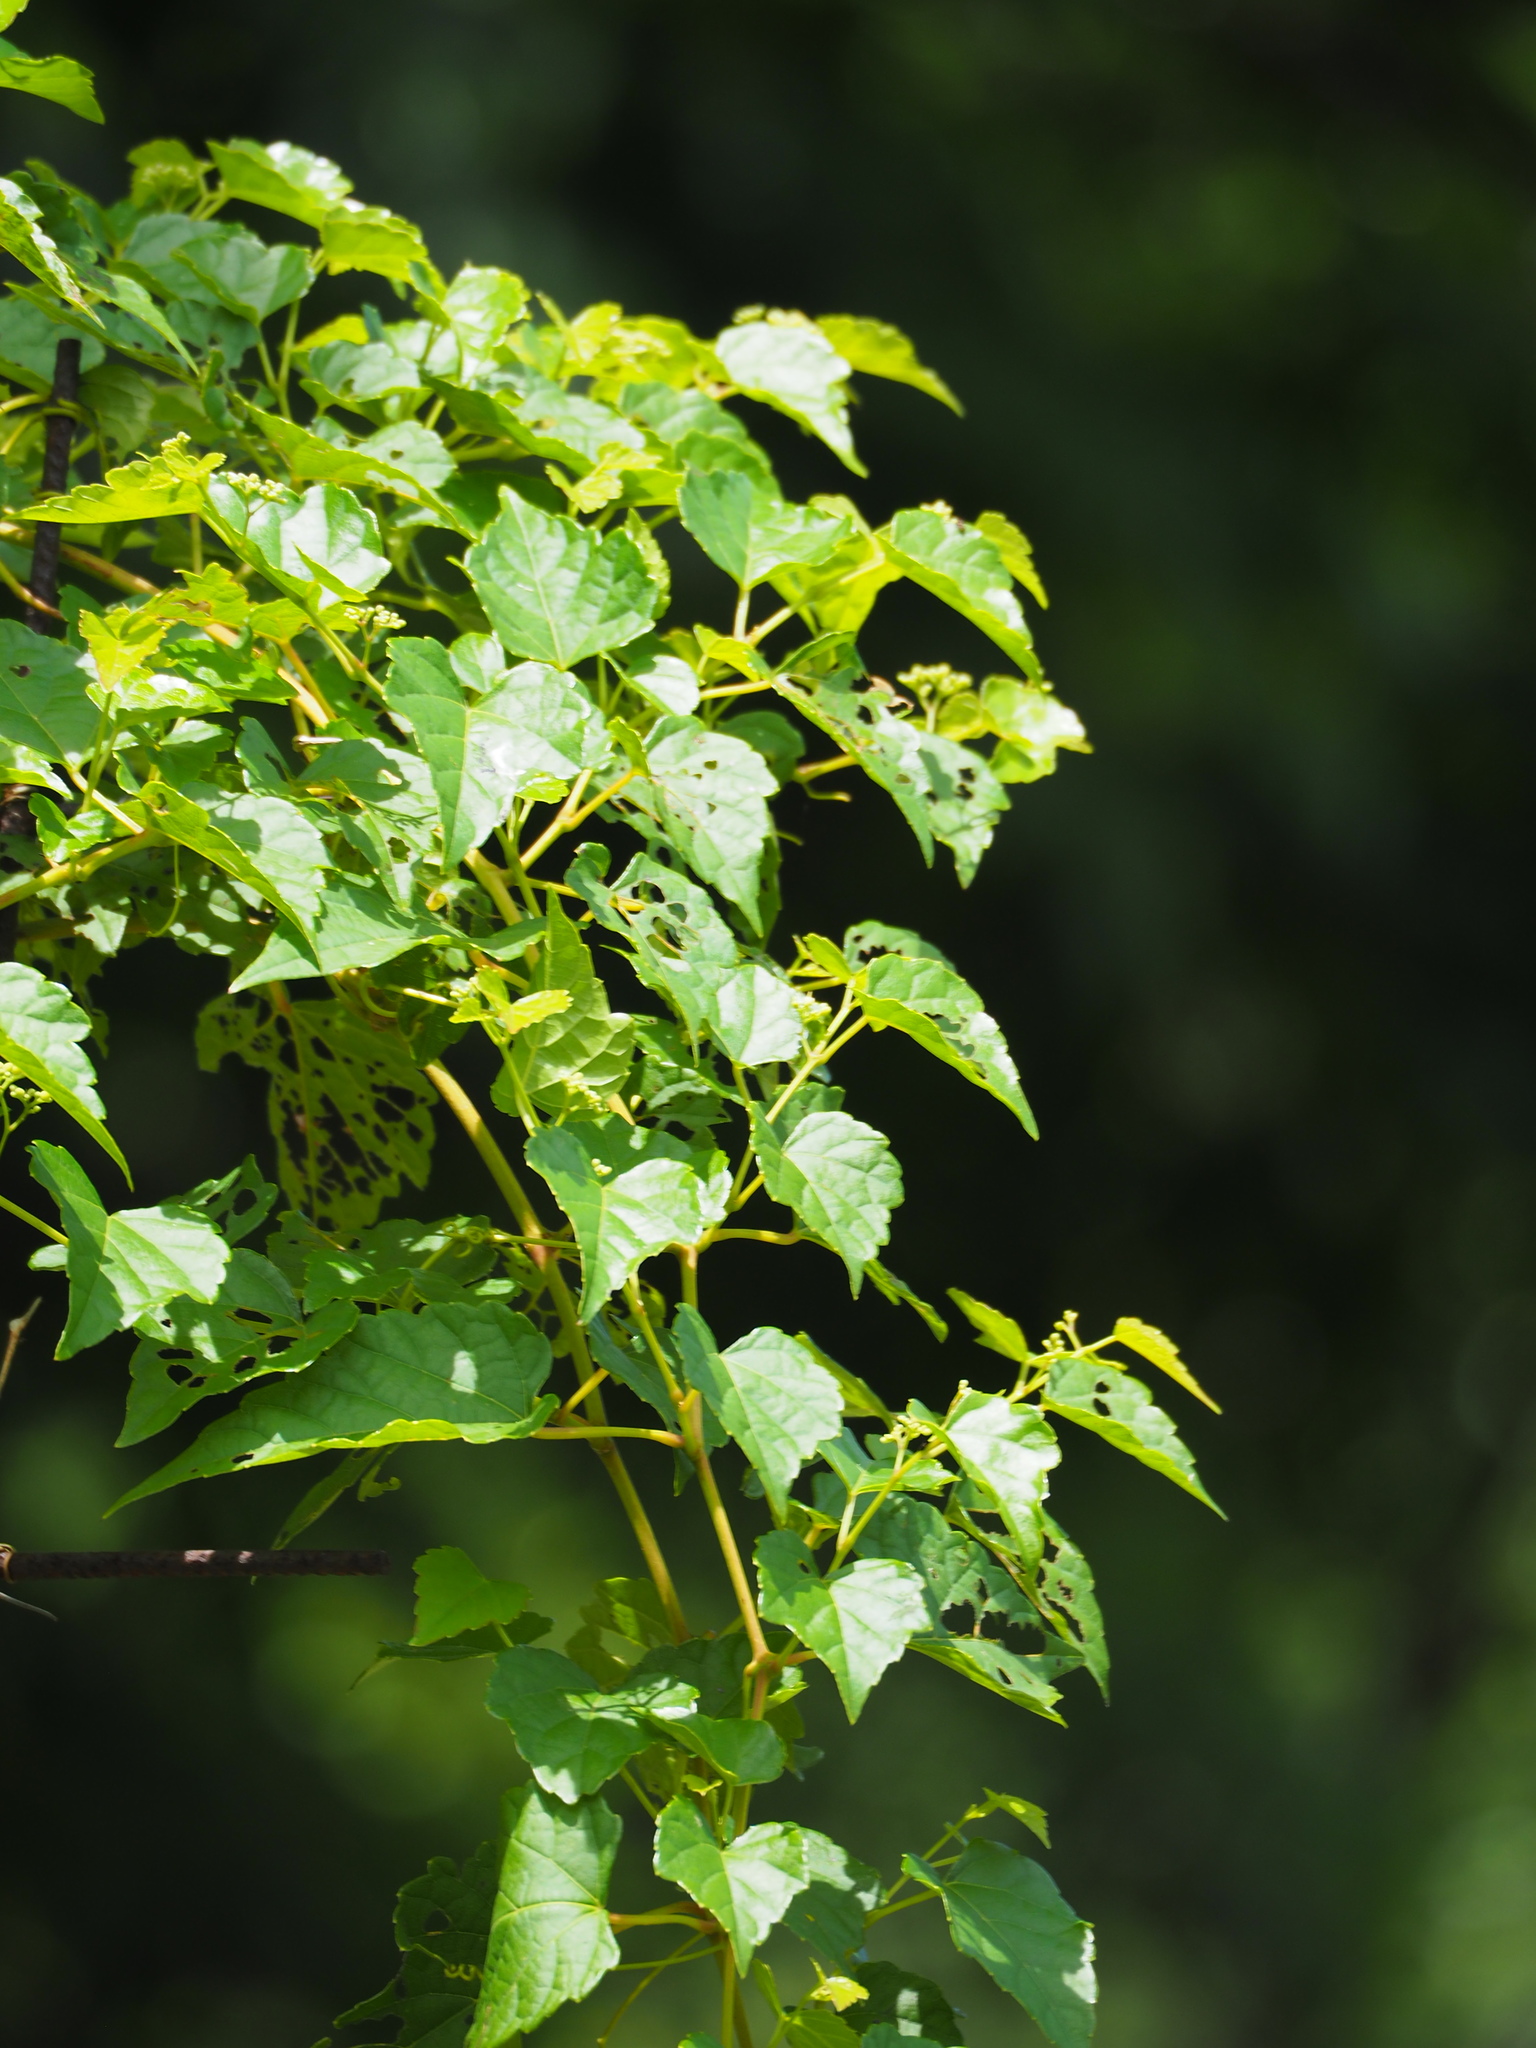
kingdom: Plantae
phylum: Tracheophyta
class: Magnoliopsida
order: Vitales
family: Vitaceae
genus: Ampelopsis
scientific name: Ampelopsis glandulosa
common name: Amur peppervine
